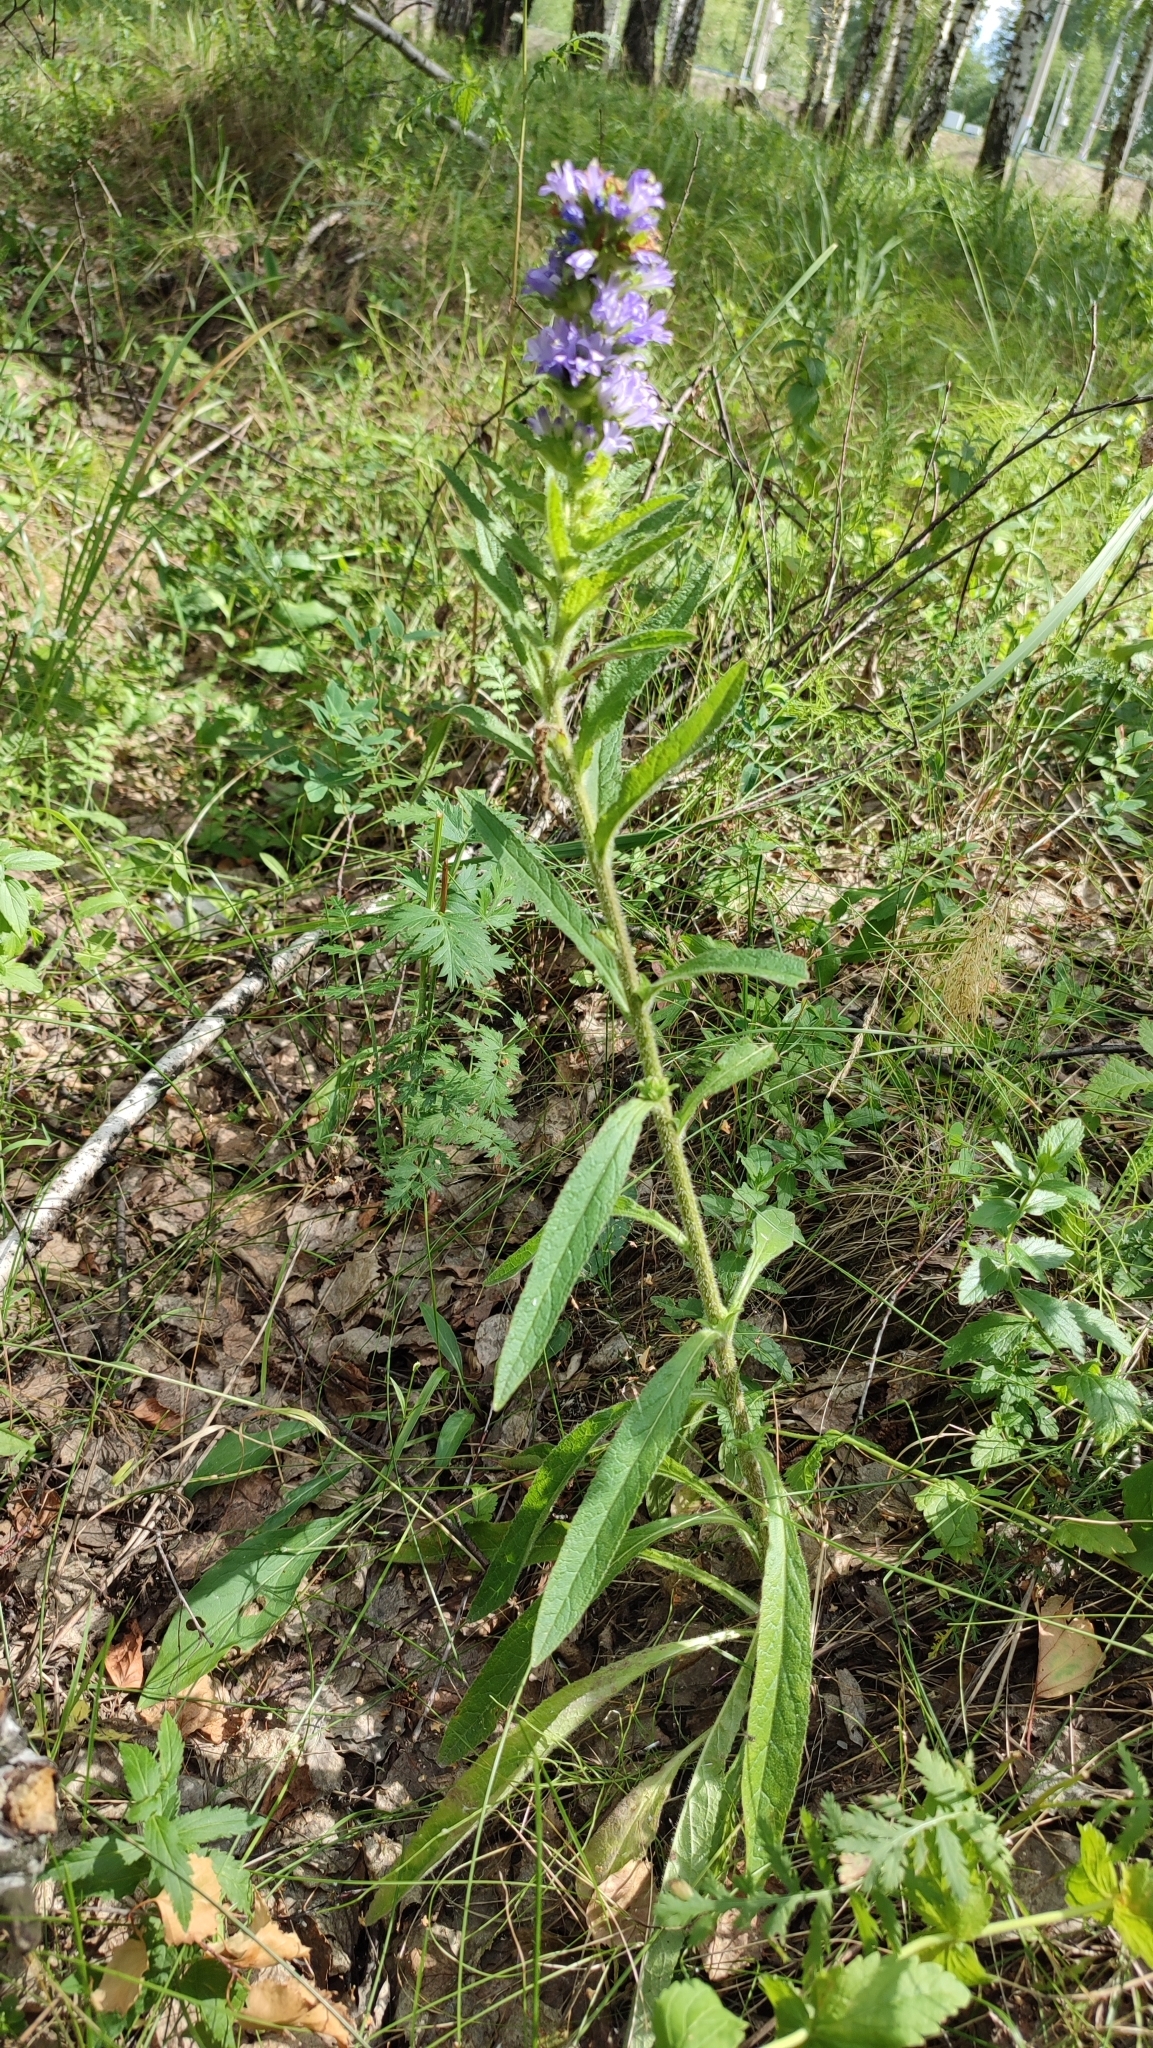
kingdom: Plantae
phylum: Tracheophyta
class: Magnoliopsida
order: Asterales
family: Campanulaceae
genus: Campanula
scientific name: Campanula cervicaria
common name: Bristly bellflower
